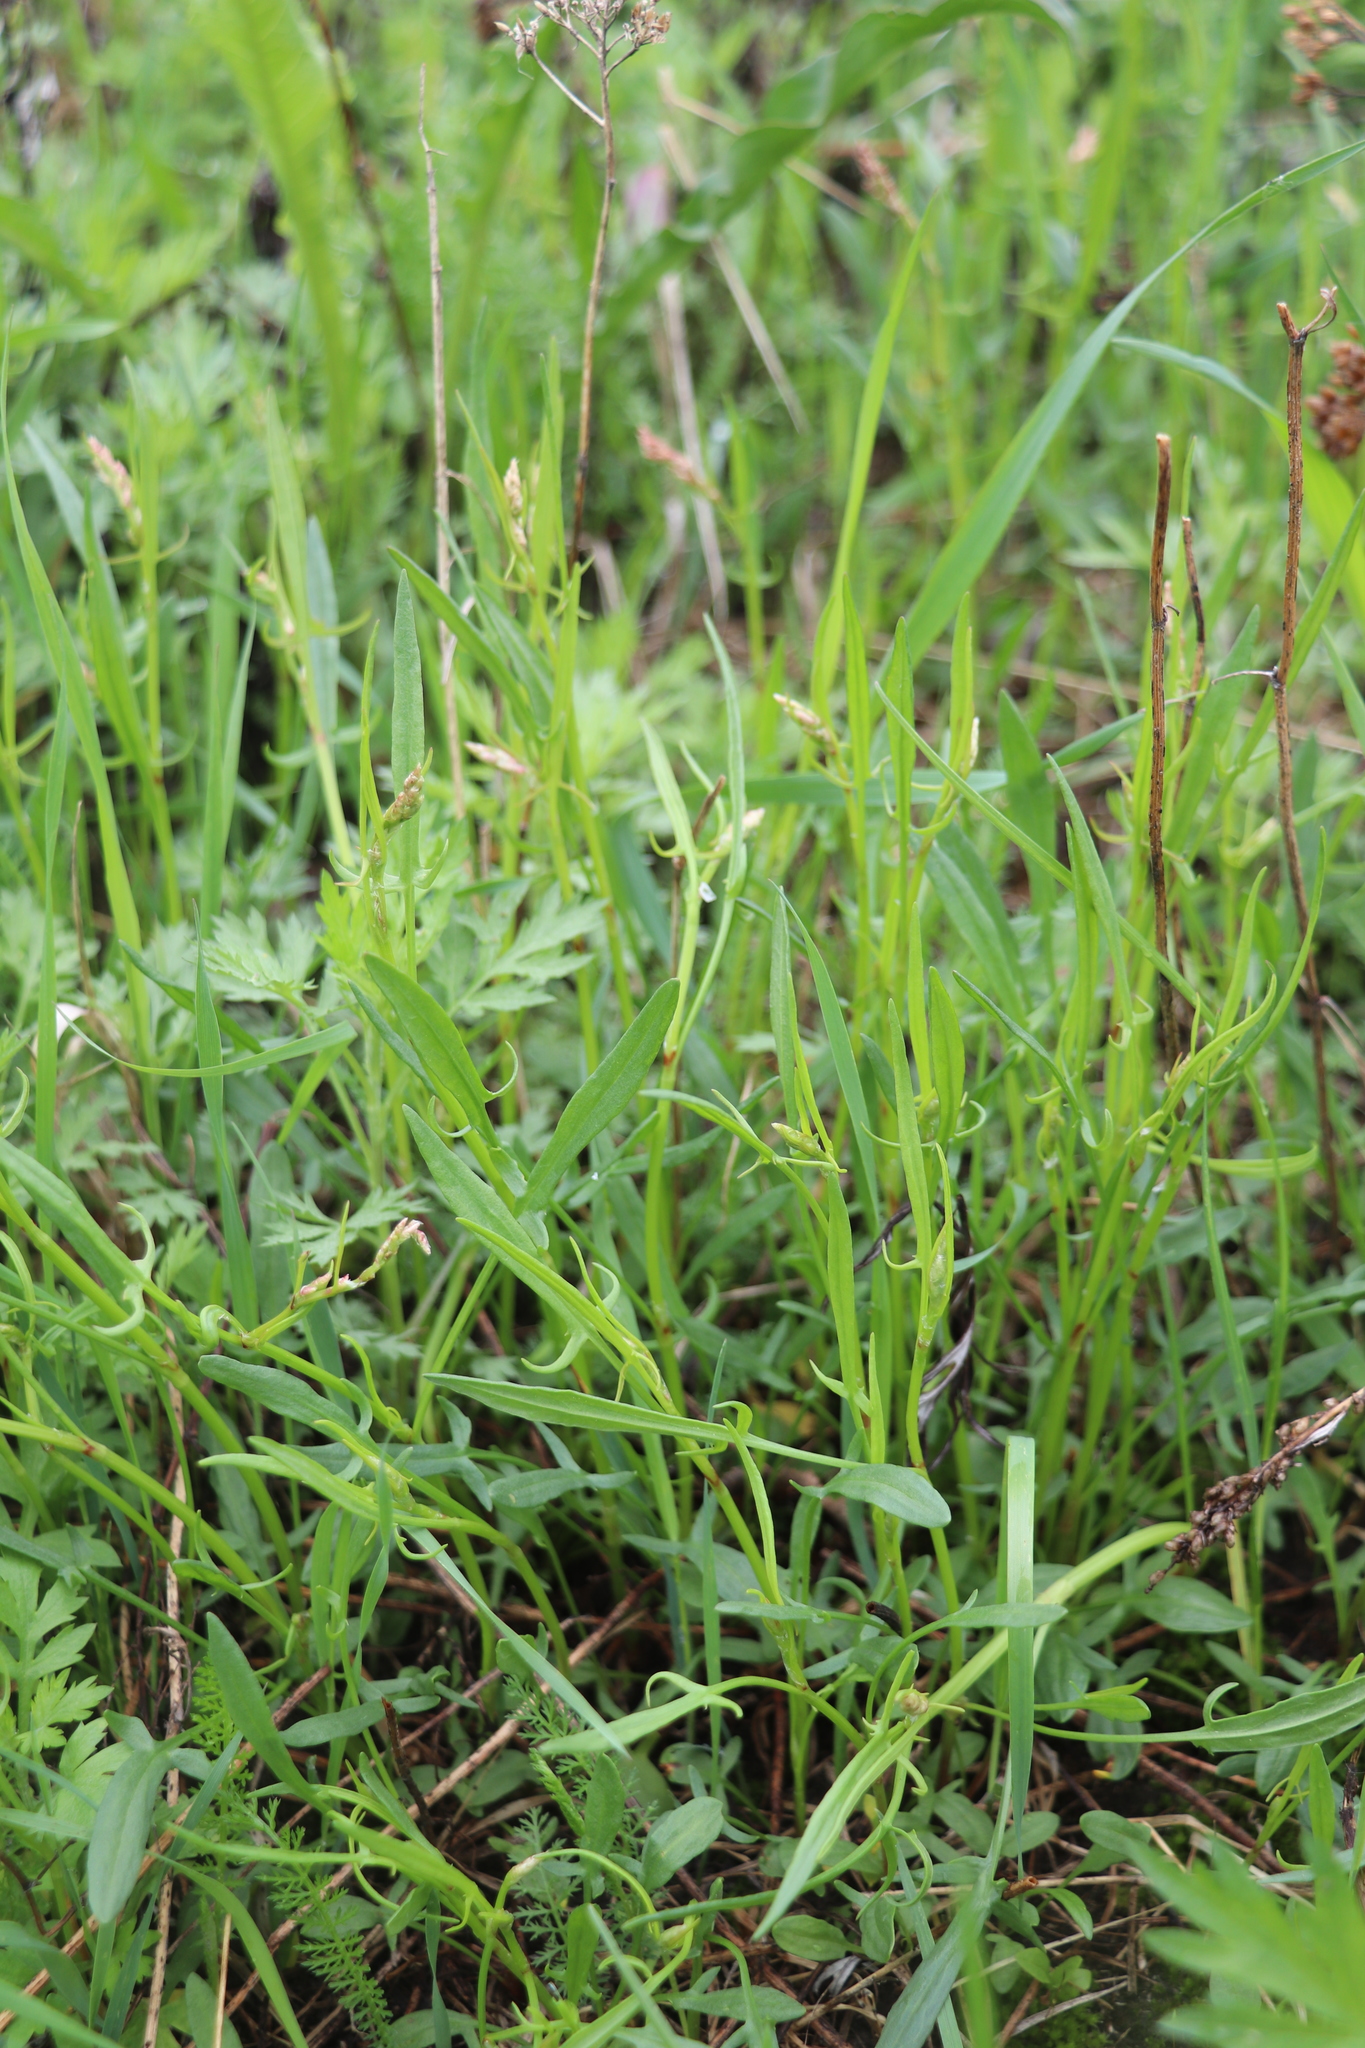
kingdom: Plantae
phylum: Tracheophyta
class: Magnoliopsida
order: Caryophyllales
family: Polygonaceae
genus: Rumex
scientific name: Rumex acetosella
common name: Common sheep sorrel
